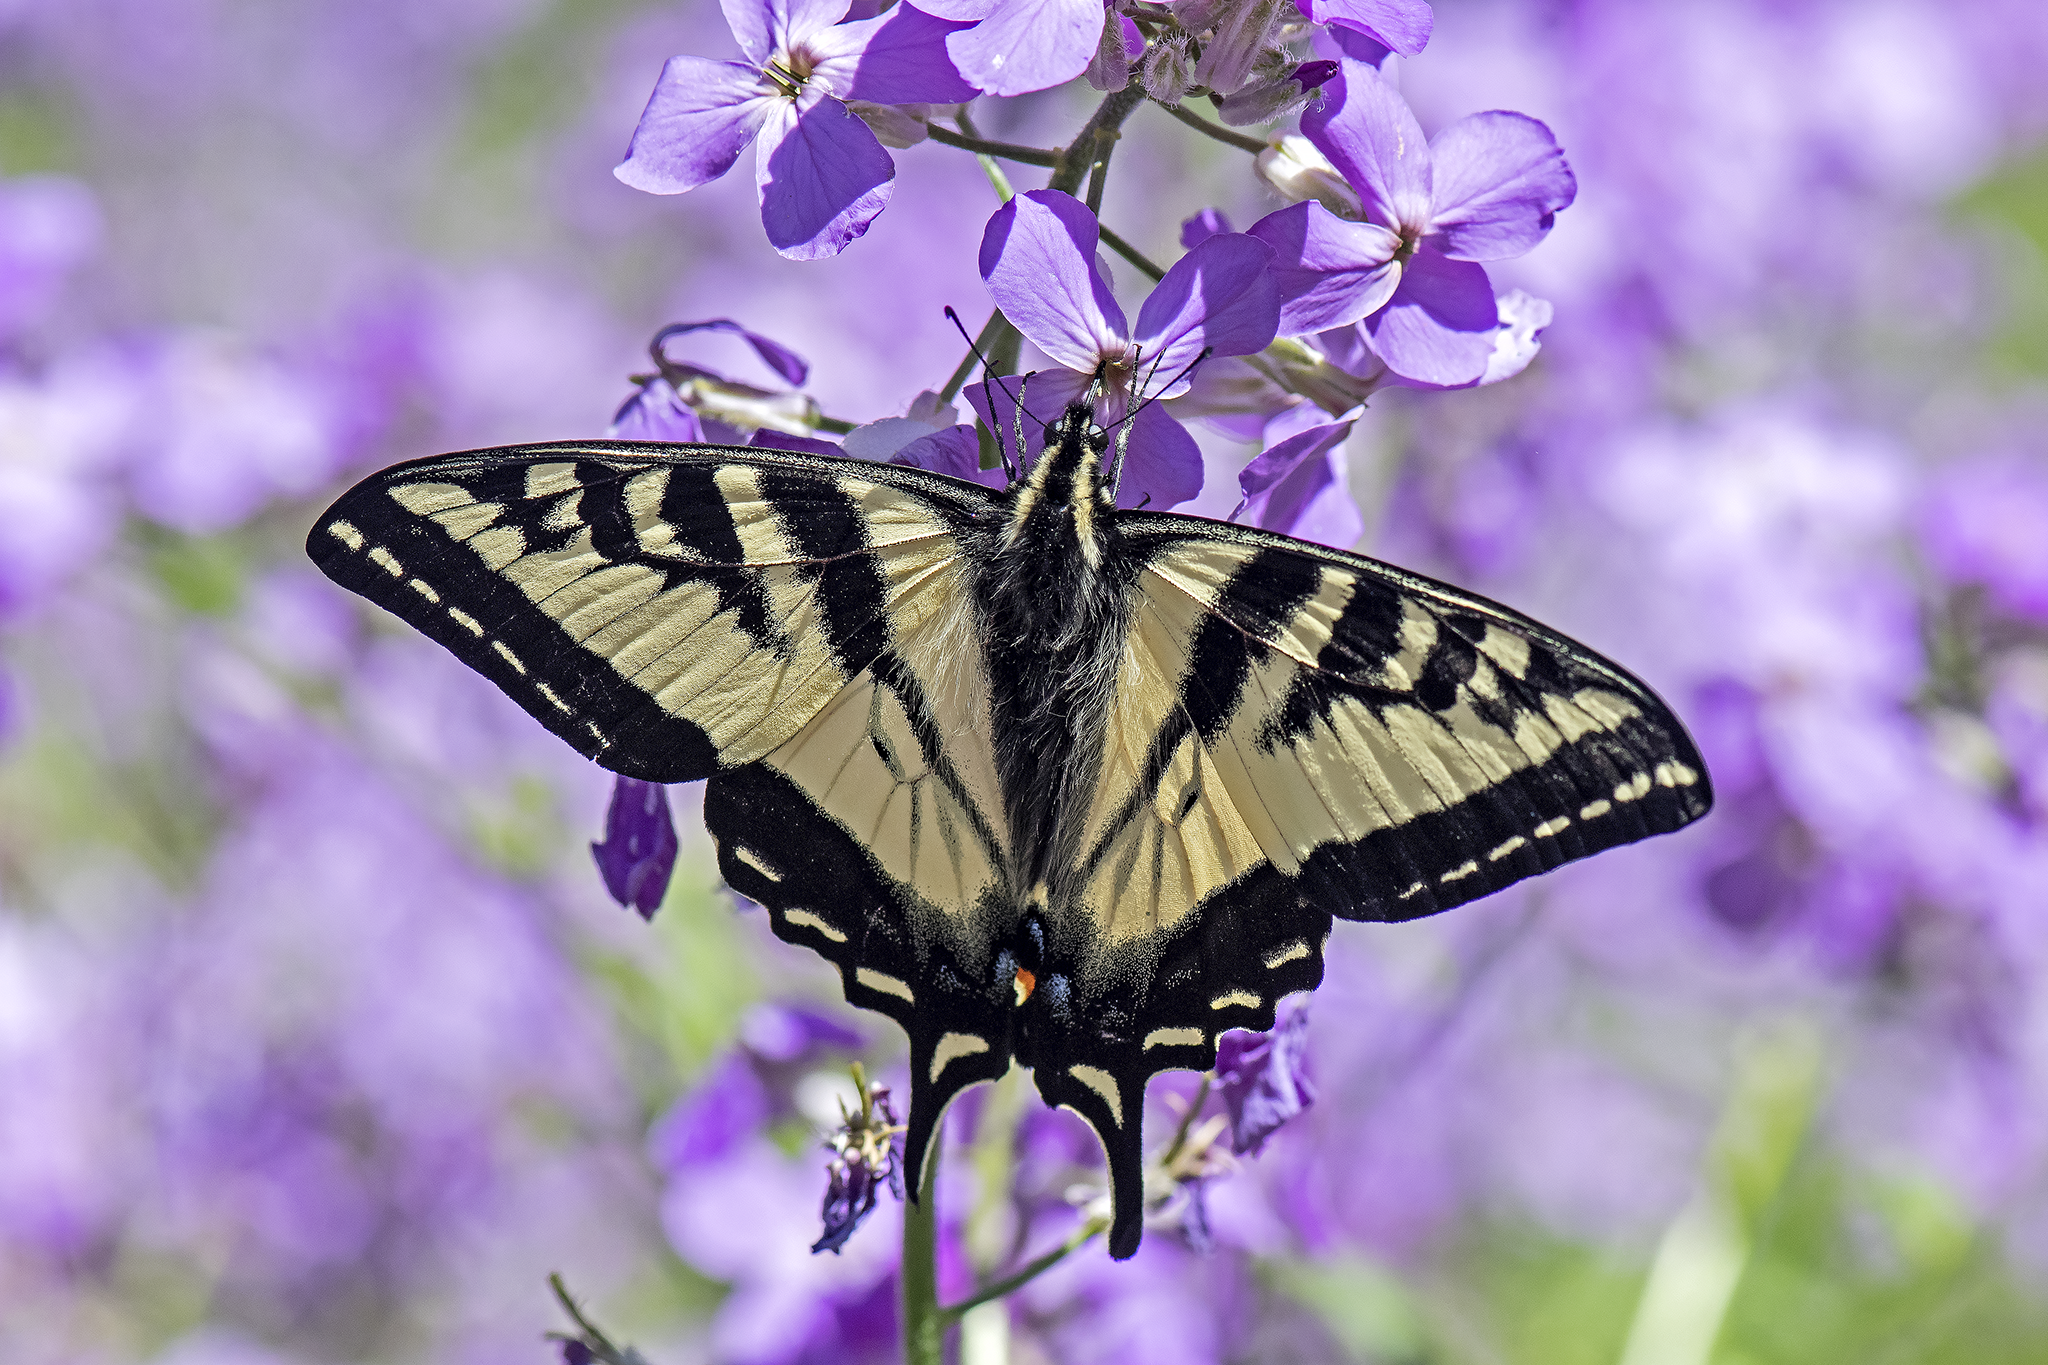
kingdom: Animalia
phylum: Arthropoda
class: Insecta
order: Lepidoptera
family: Papilionidae
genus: Papilio
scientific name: Papilio rutulus
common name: Western tiger swallowtail
